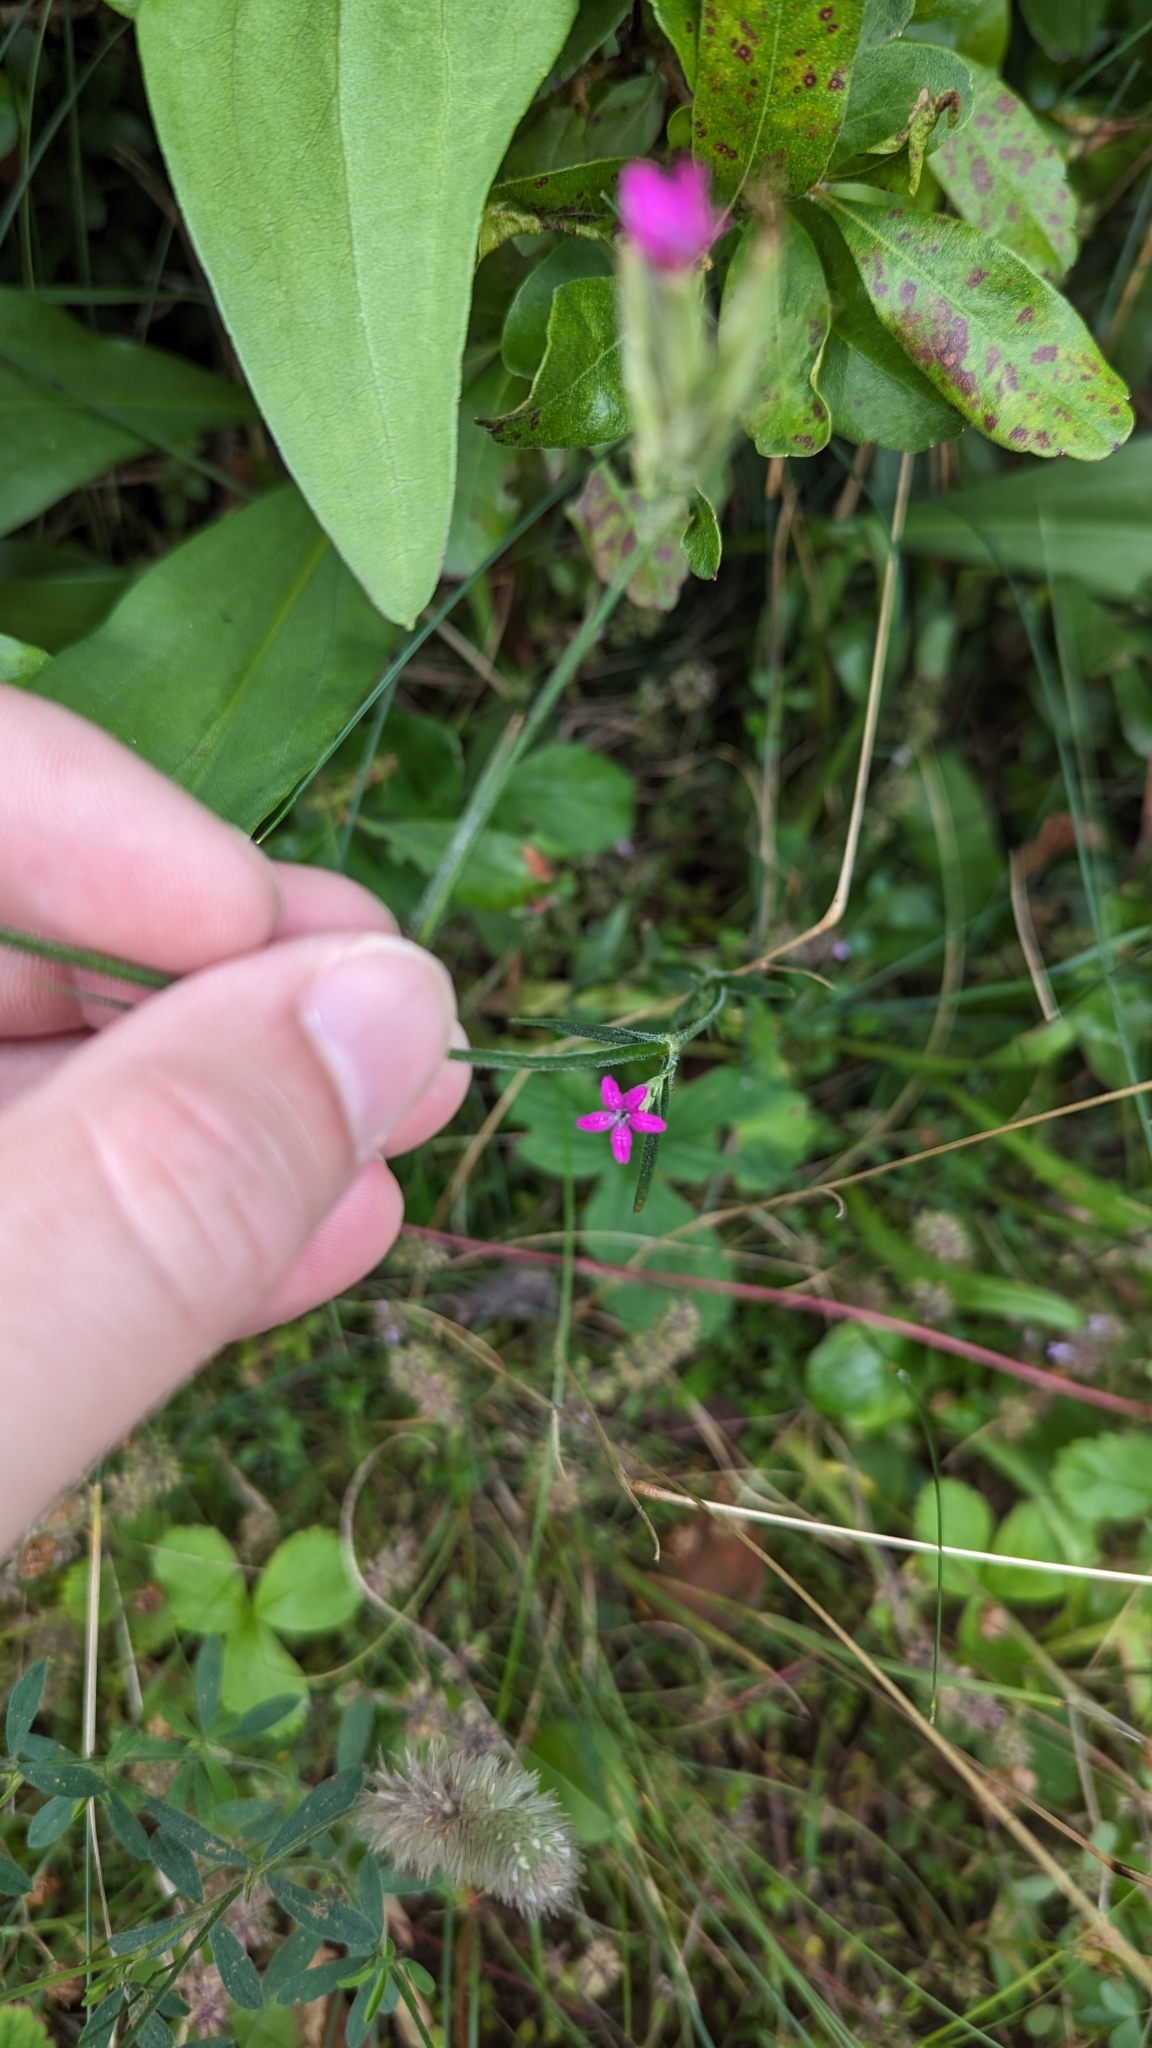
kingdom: Plantae
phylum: Tracheophyta
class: Magnoliopsida
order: Caryophyllales
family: Caryophyllaceae
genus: Dianthus
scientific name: Dianthus armeria
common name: Deptford pink
